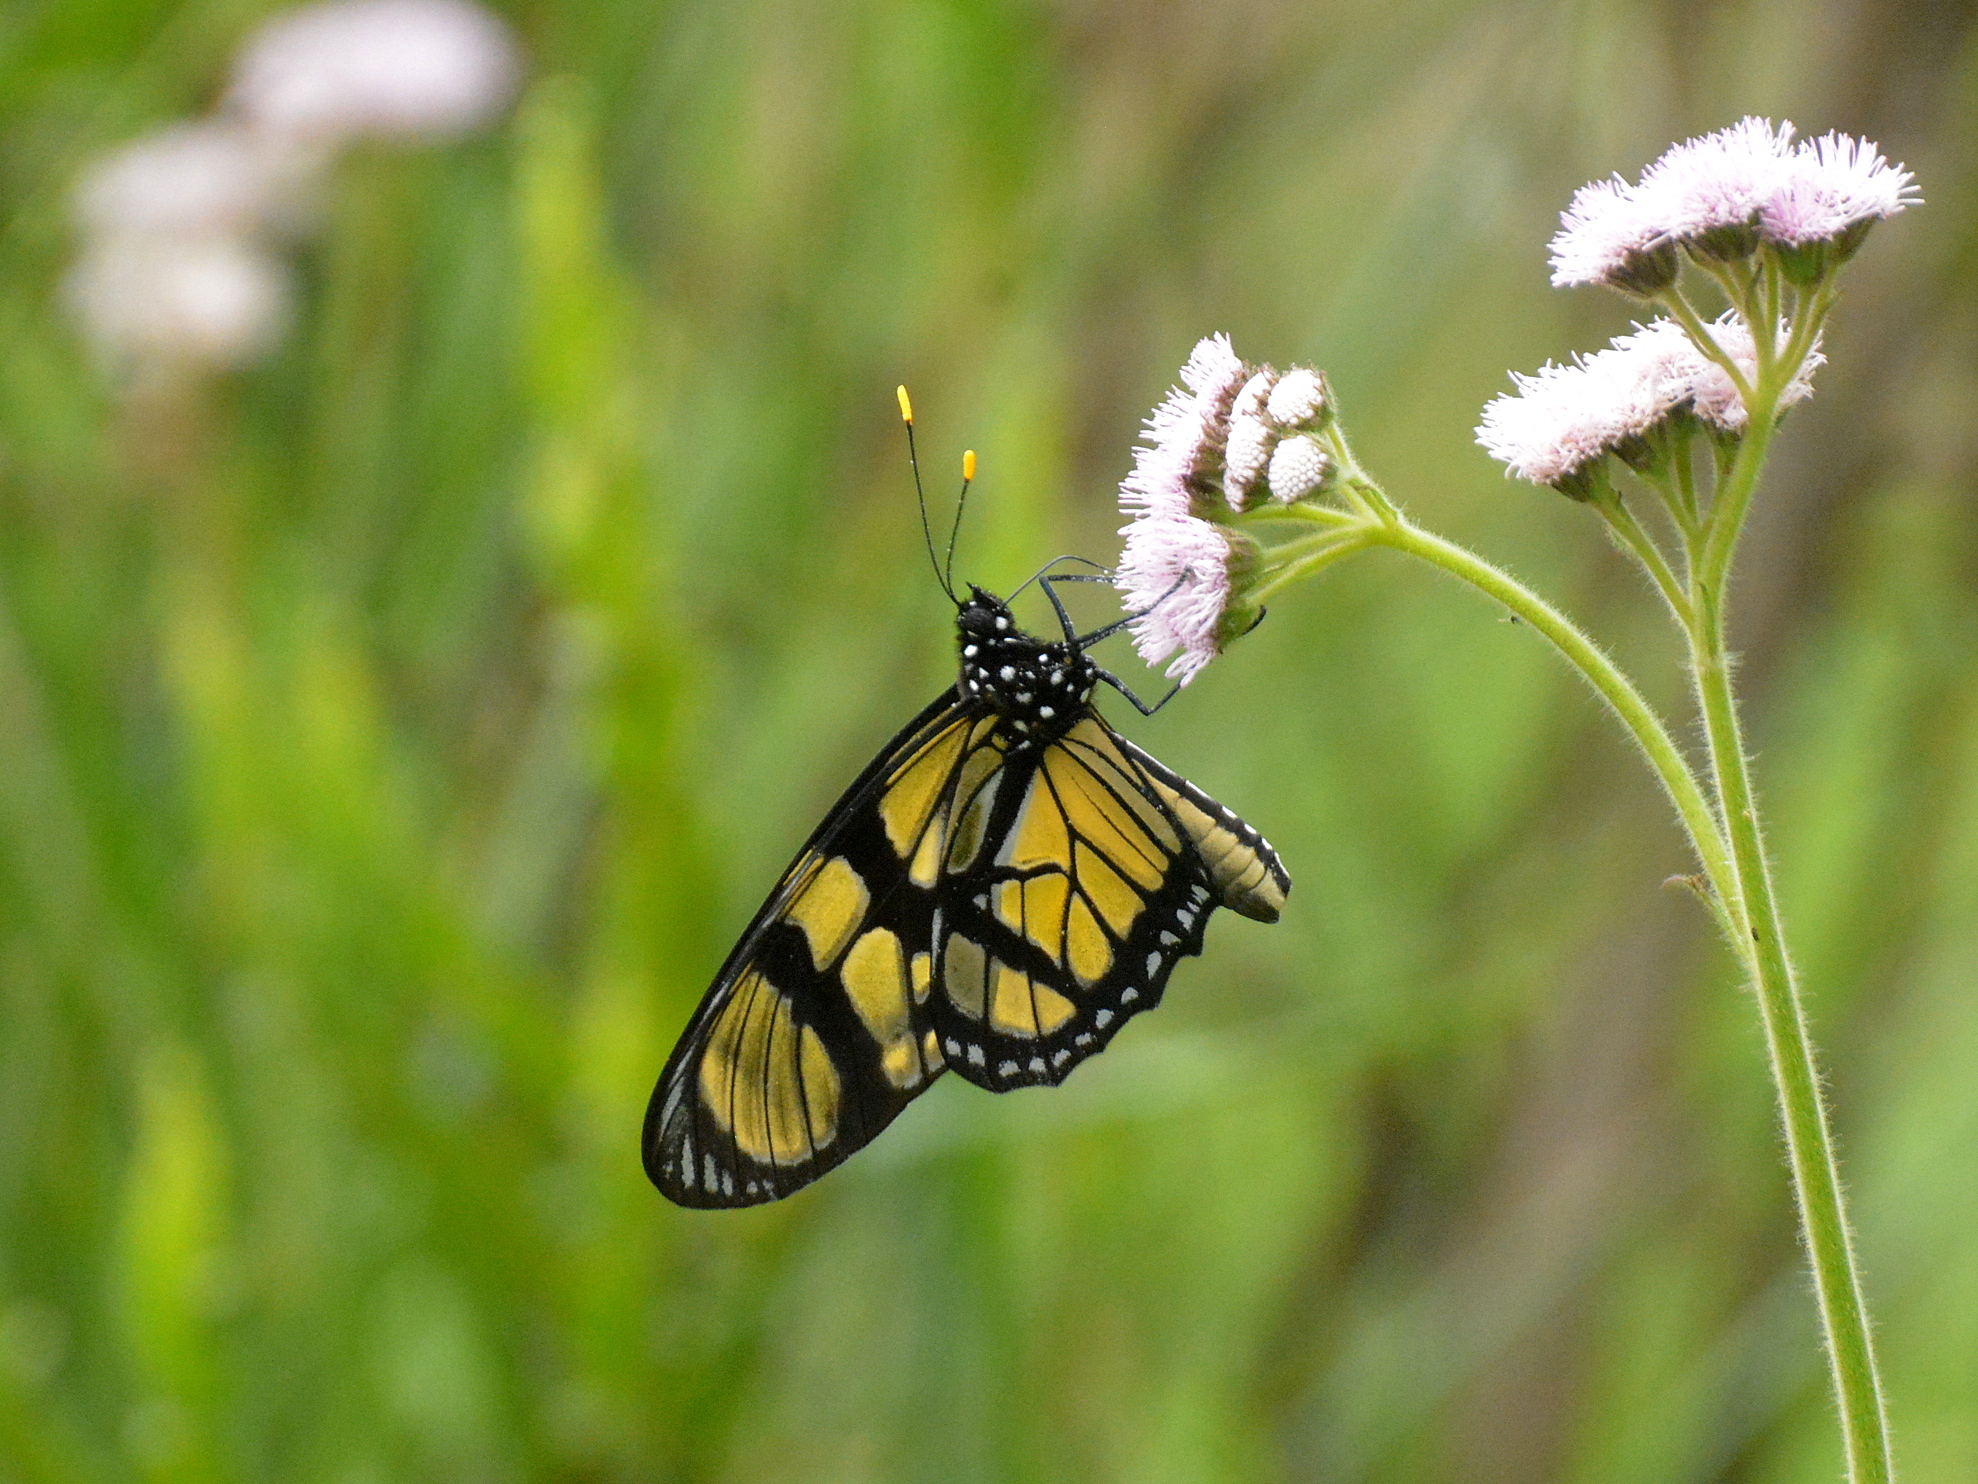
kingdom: Animalia
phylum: Arthropoda
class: Insecta
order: Lepidoptera
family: Nymphalidae
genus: Lycorea
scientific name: Lycorea ilione
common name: Clearwing mimic-queen
